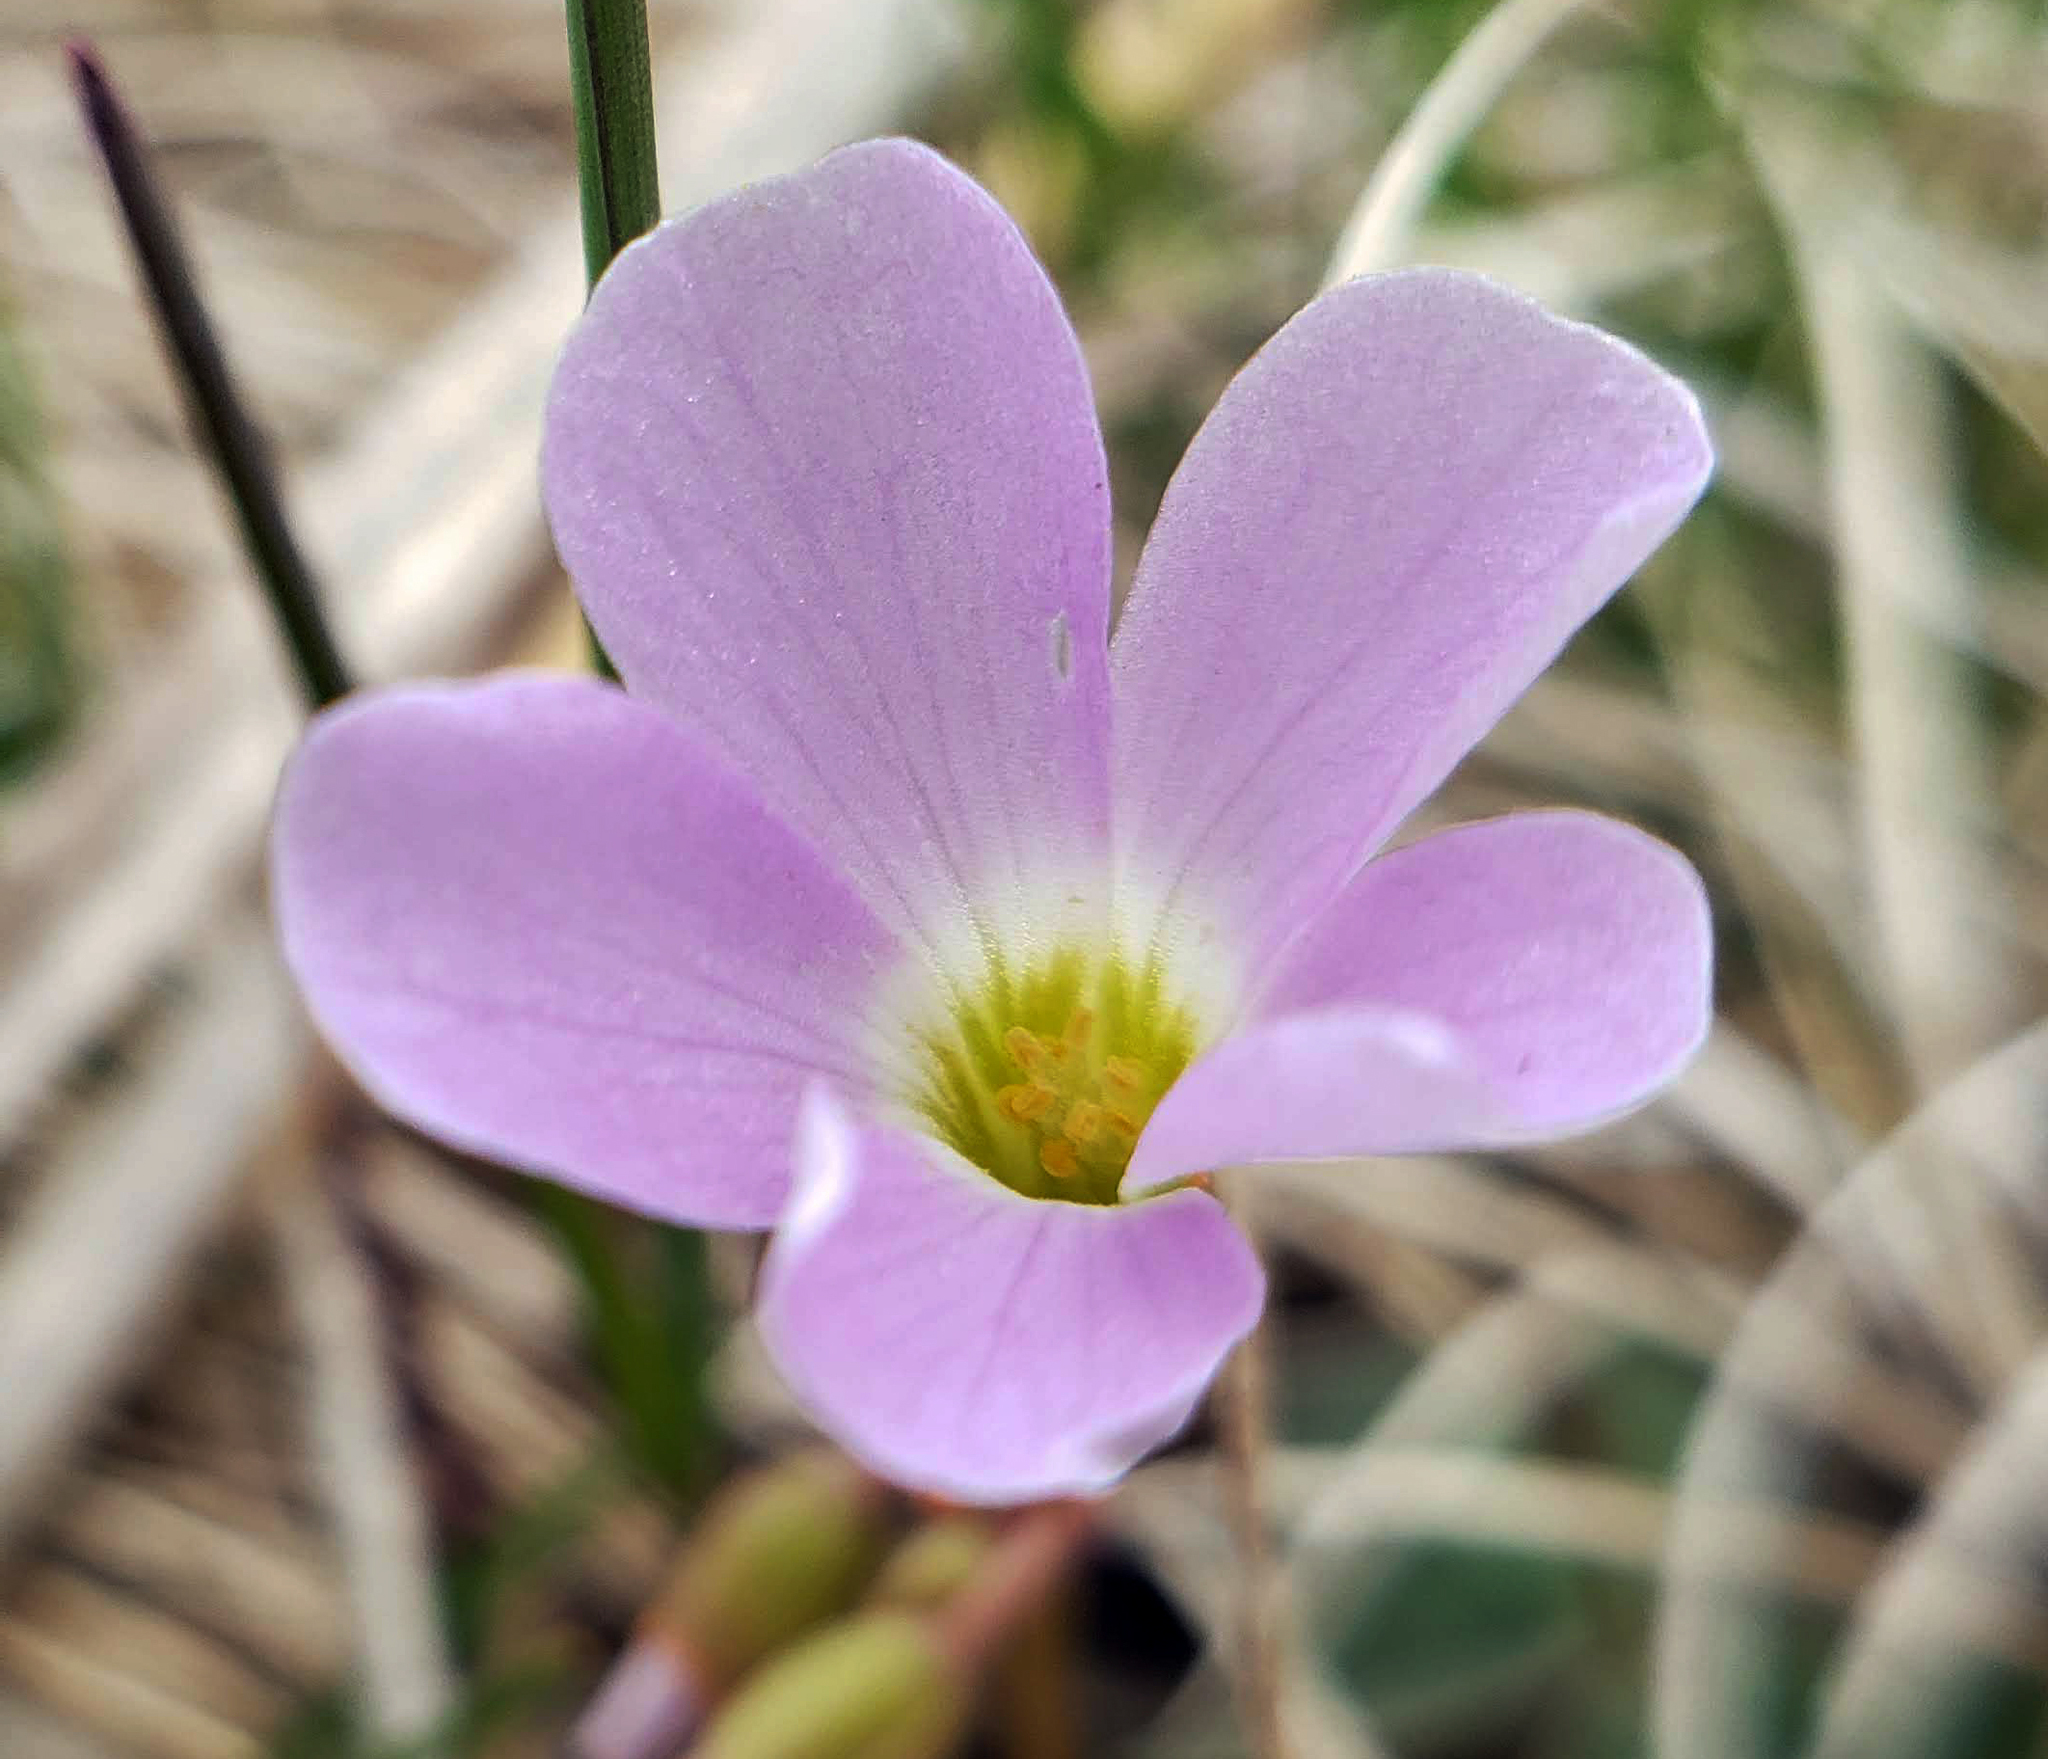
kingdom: Plantae
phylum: Tracheophyta
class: Magnoliopsida
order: Oxalidales
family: Oxalidaceae
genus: Oxalis
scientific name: Oxalis violacea
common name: Violet wood-sorrel
